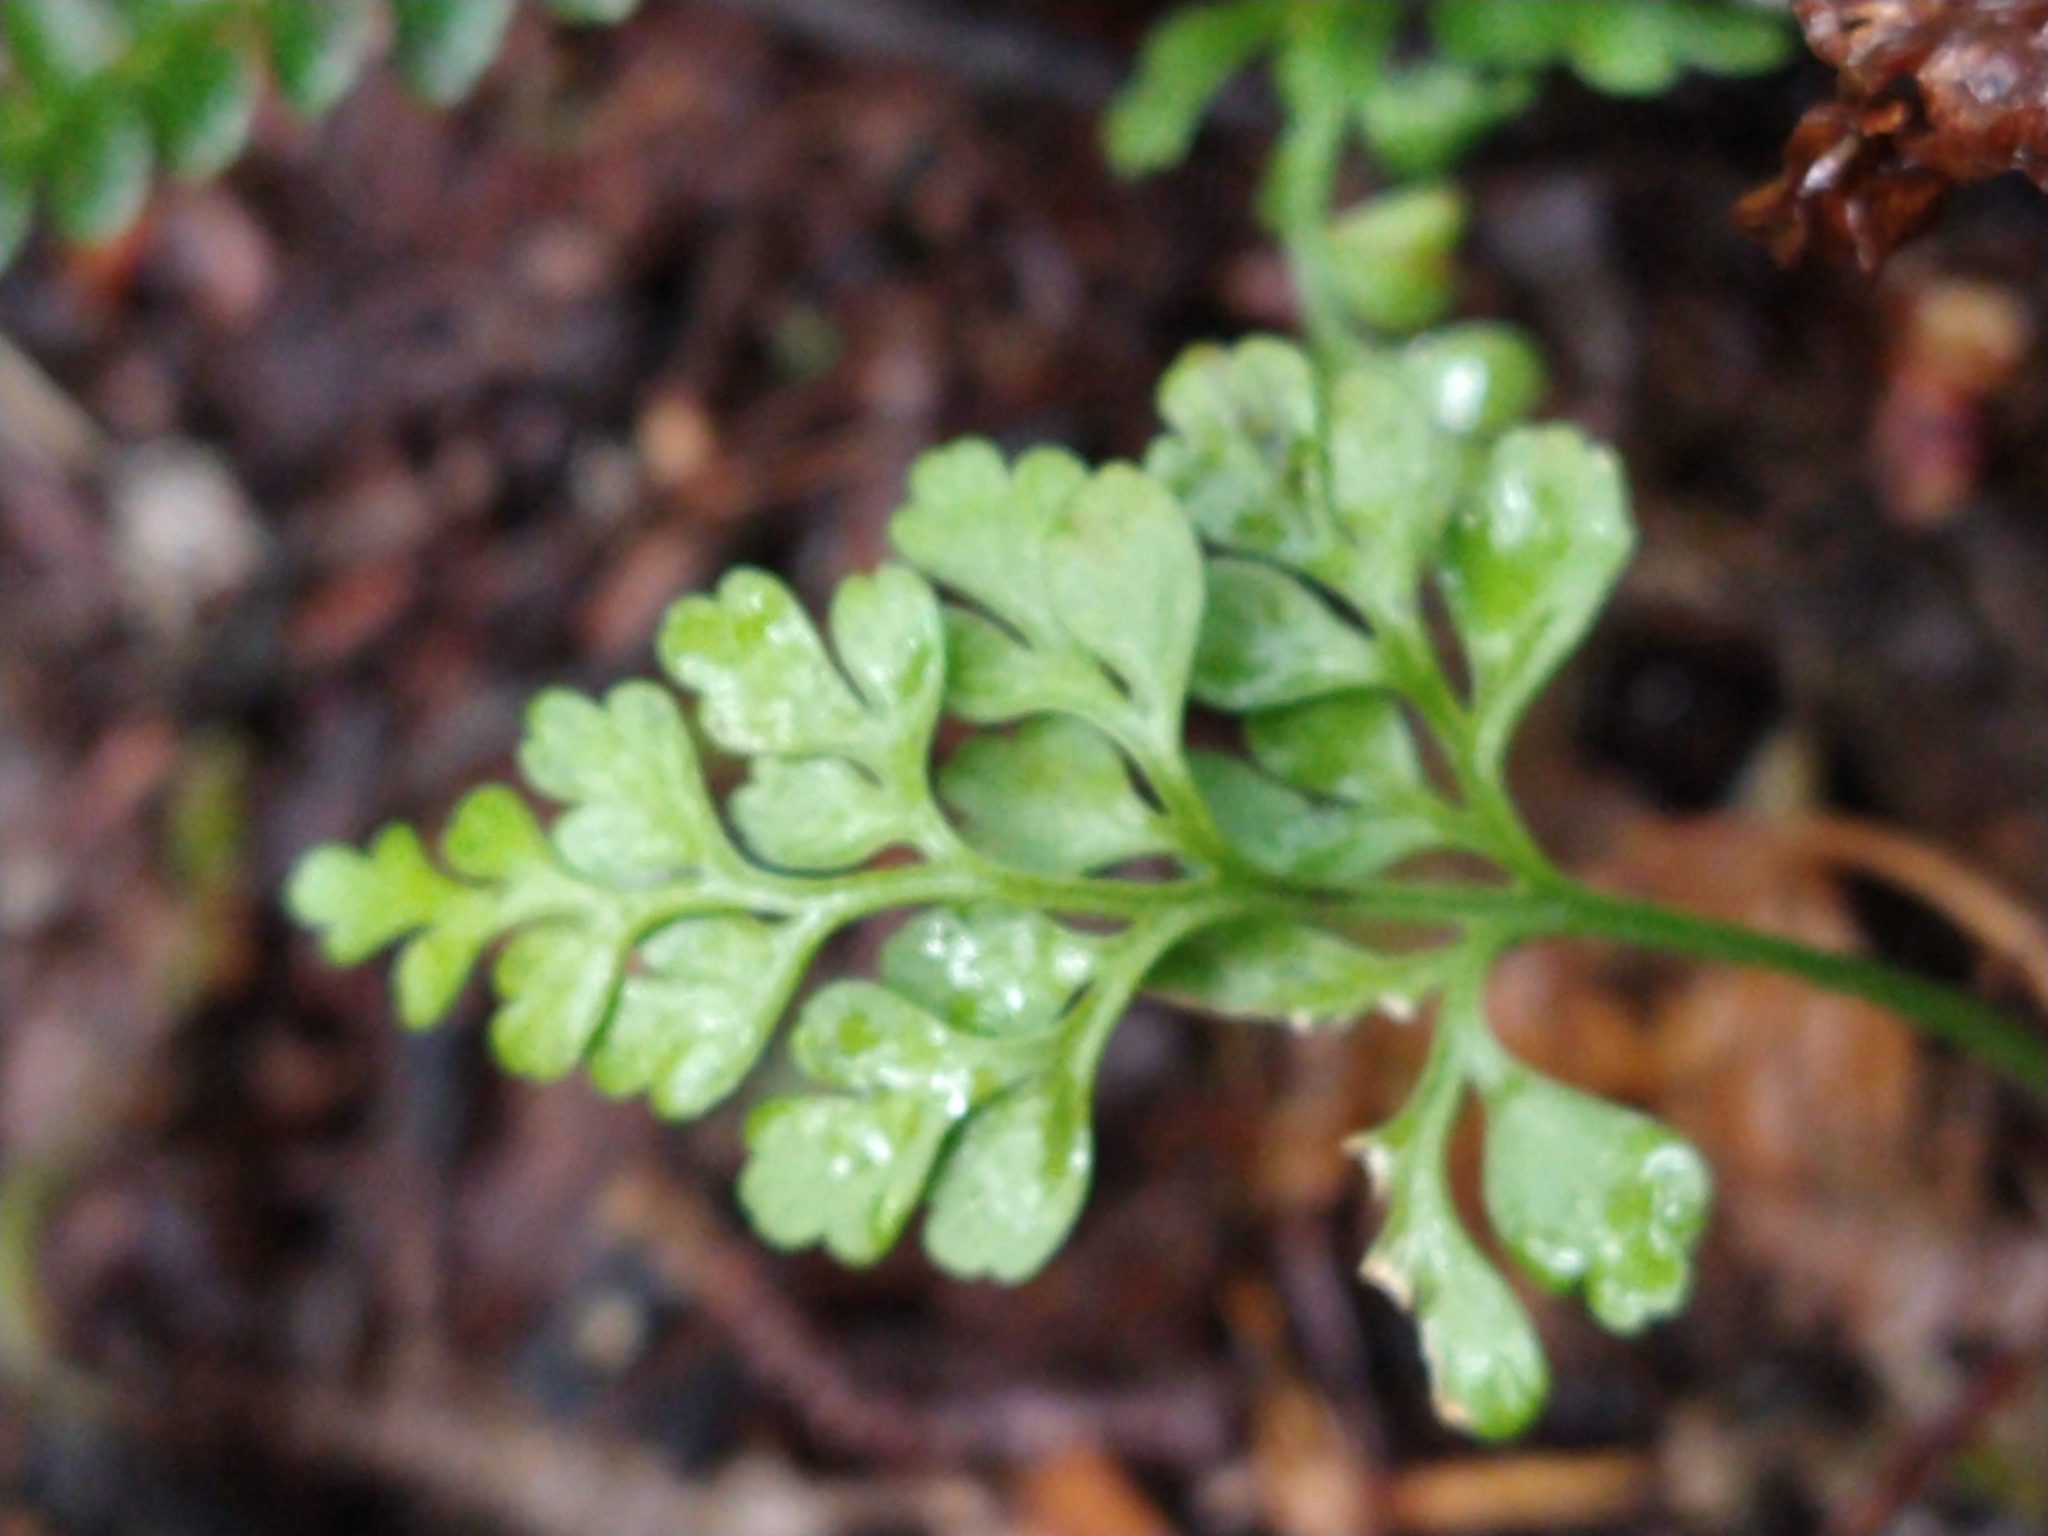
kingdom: Plantae
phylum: Tracheophyta
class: Polypodiopsida
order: Polypodiales
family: Aspleniaceae
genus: Asplenium
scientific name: Asplenium dareoides
